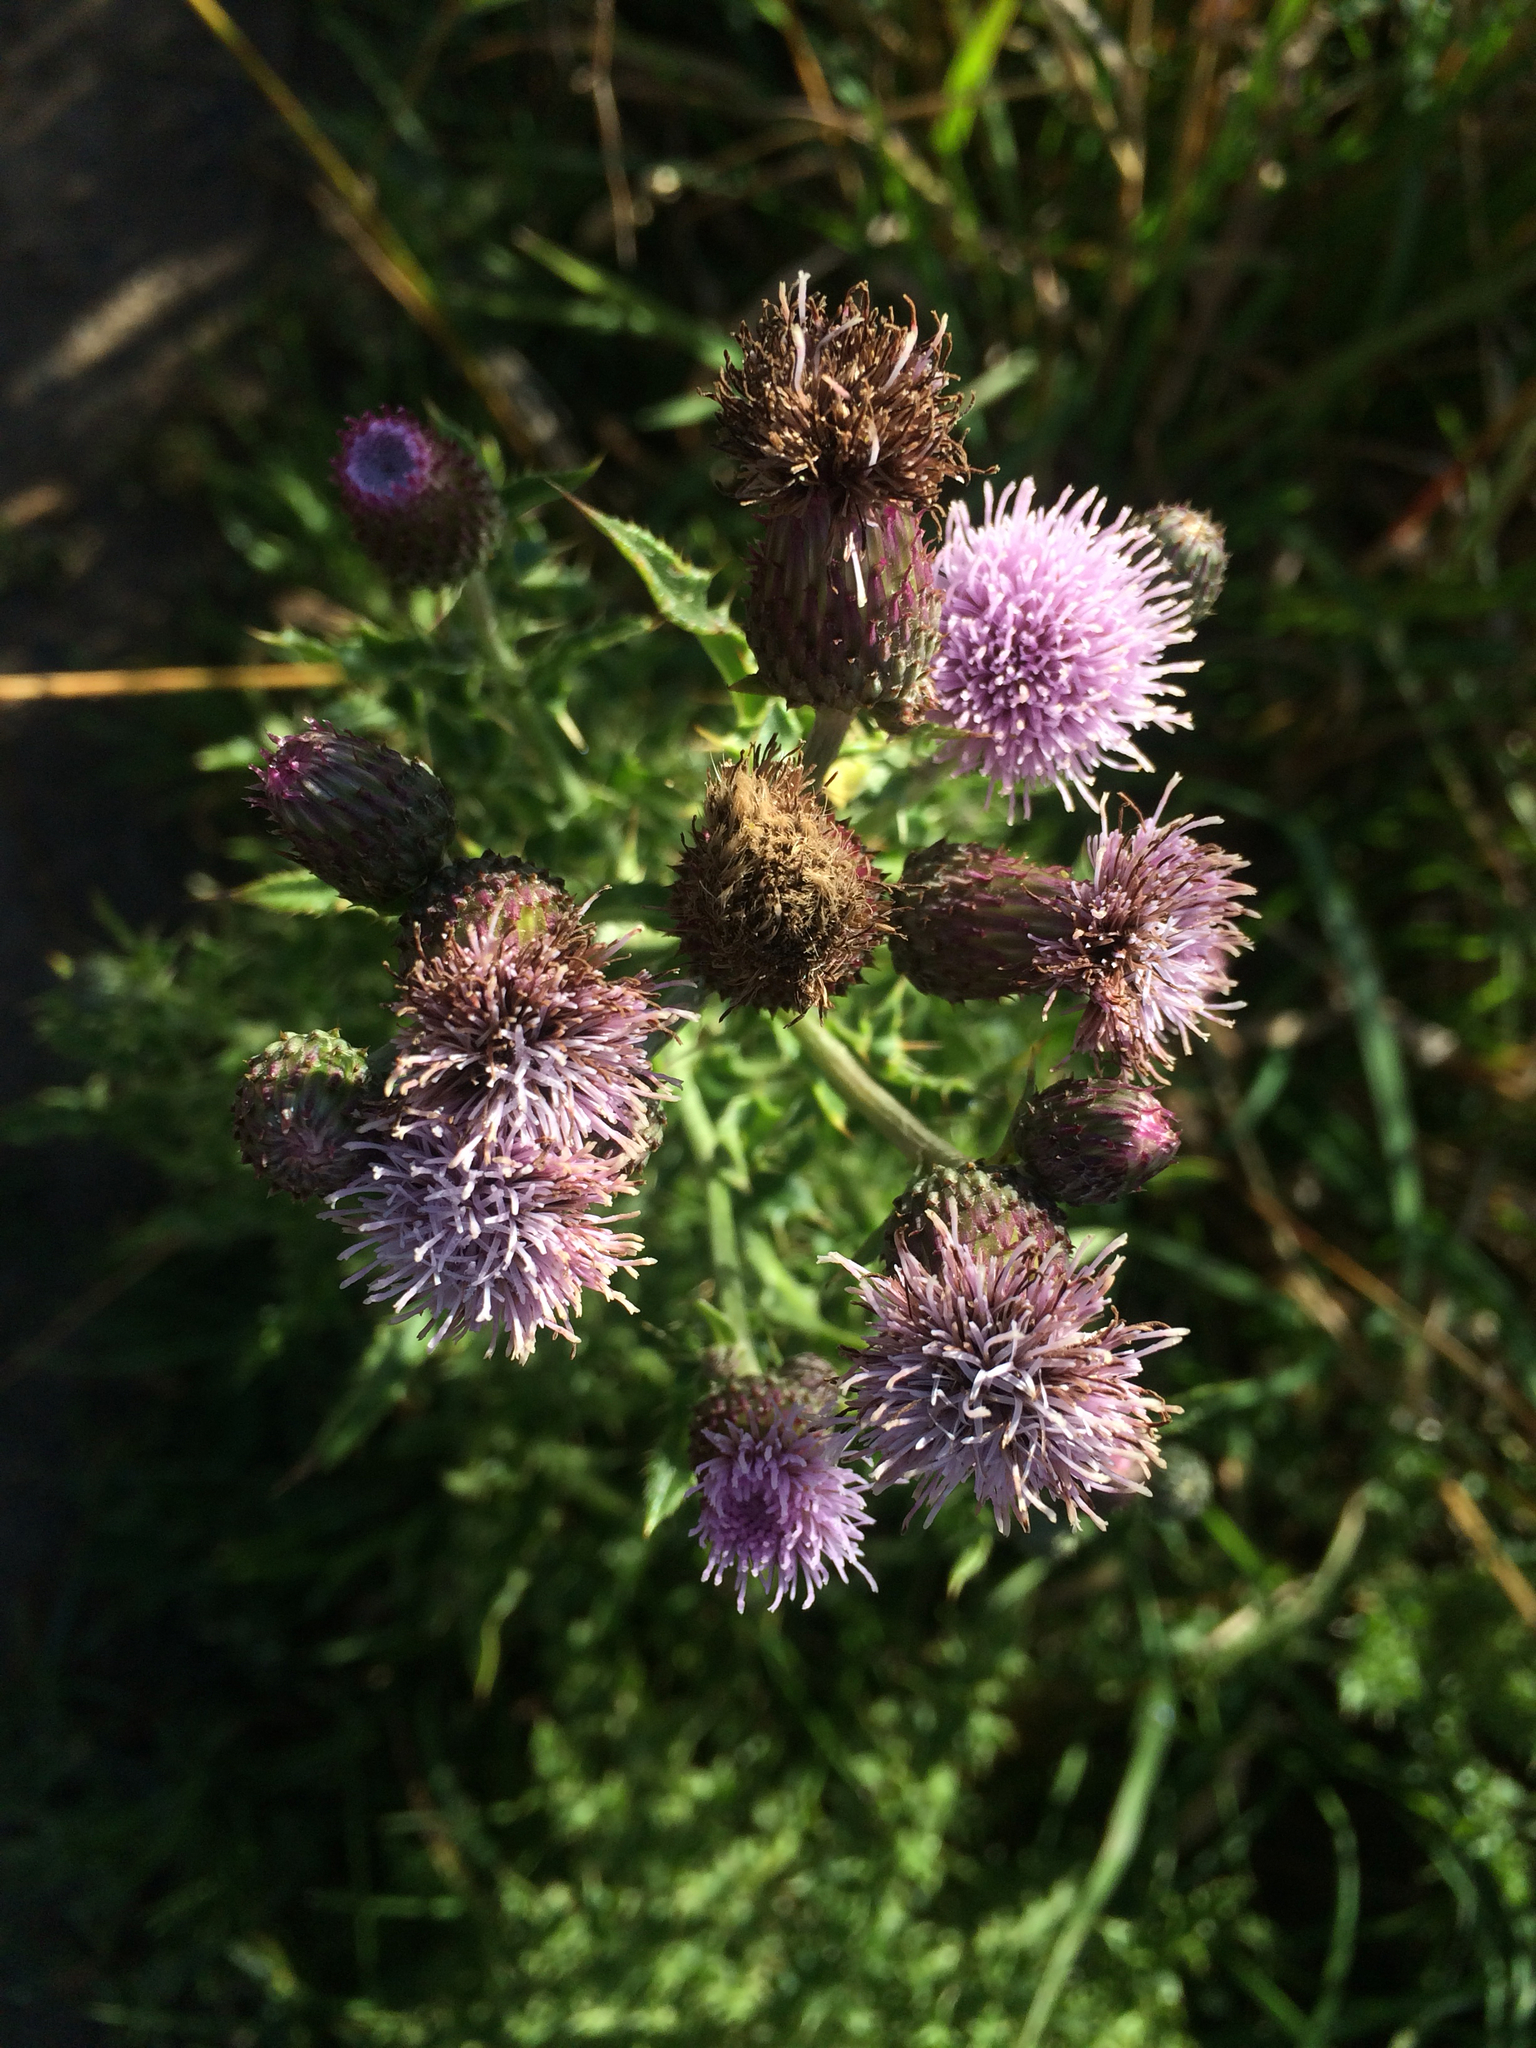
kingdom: Plantae
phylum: Tracheophyta
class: Magnoliopsida
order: Asterales
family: Asteraceae
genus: Cirsium
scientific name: Cirsium arvense
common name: Creeping thistle
